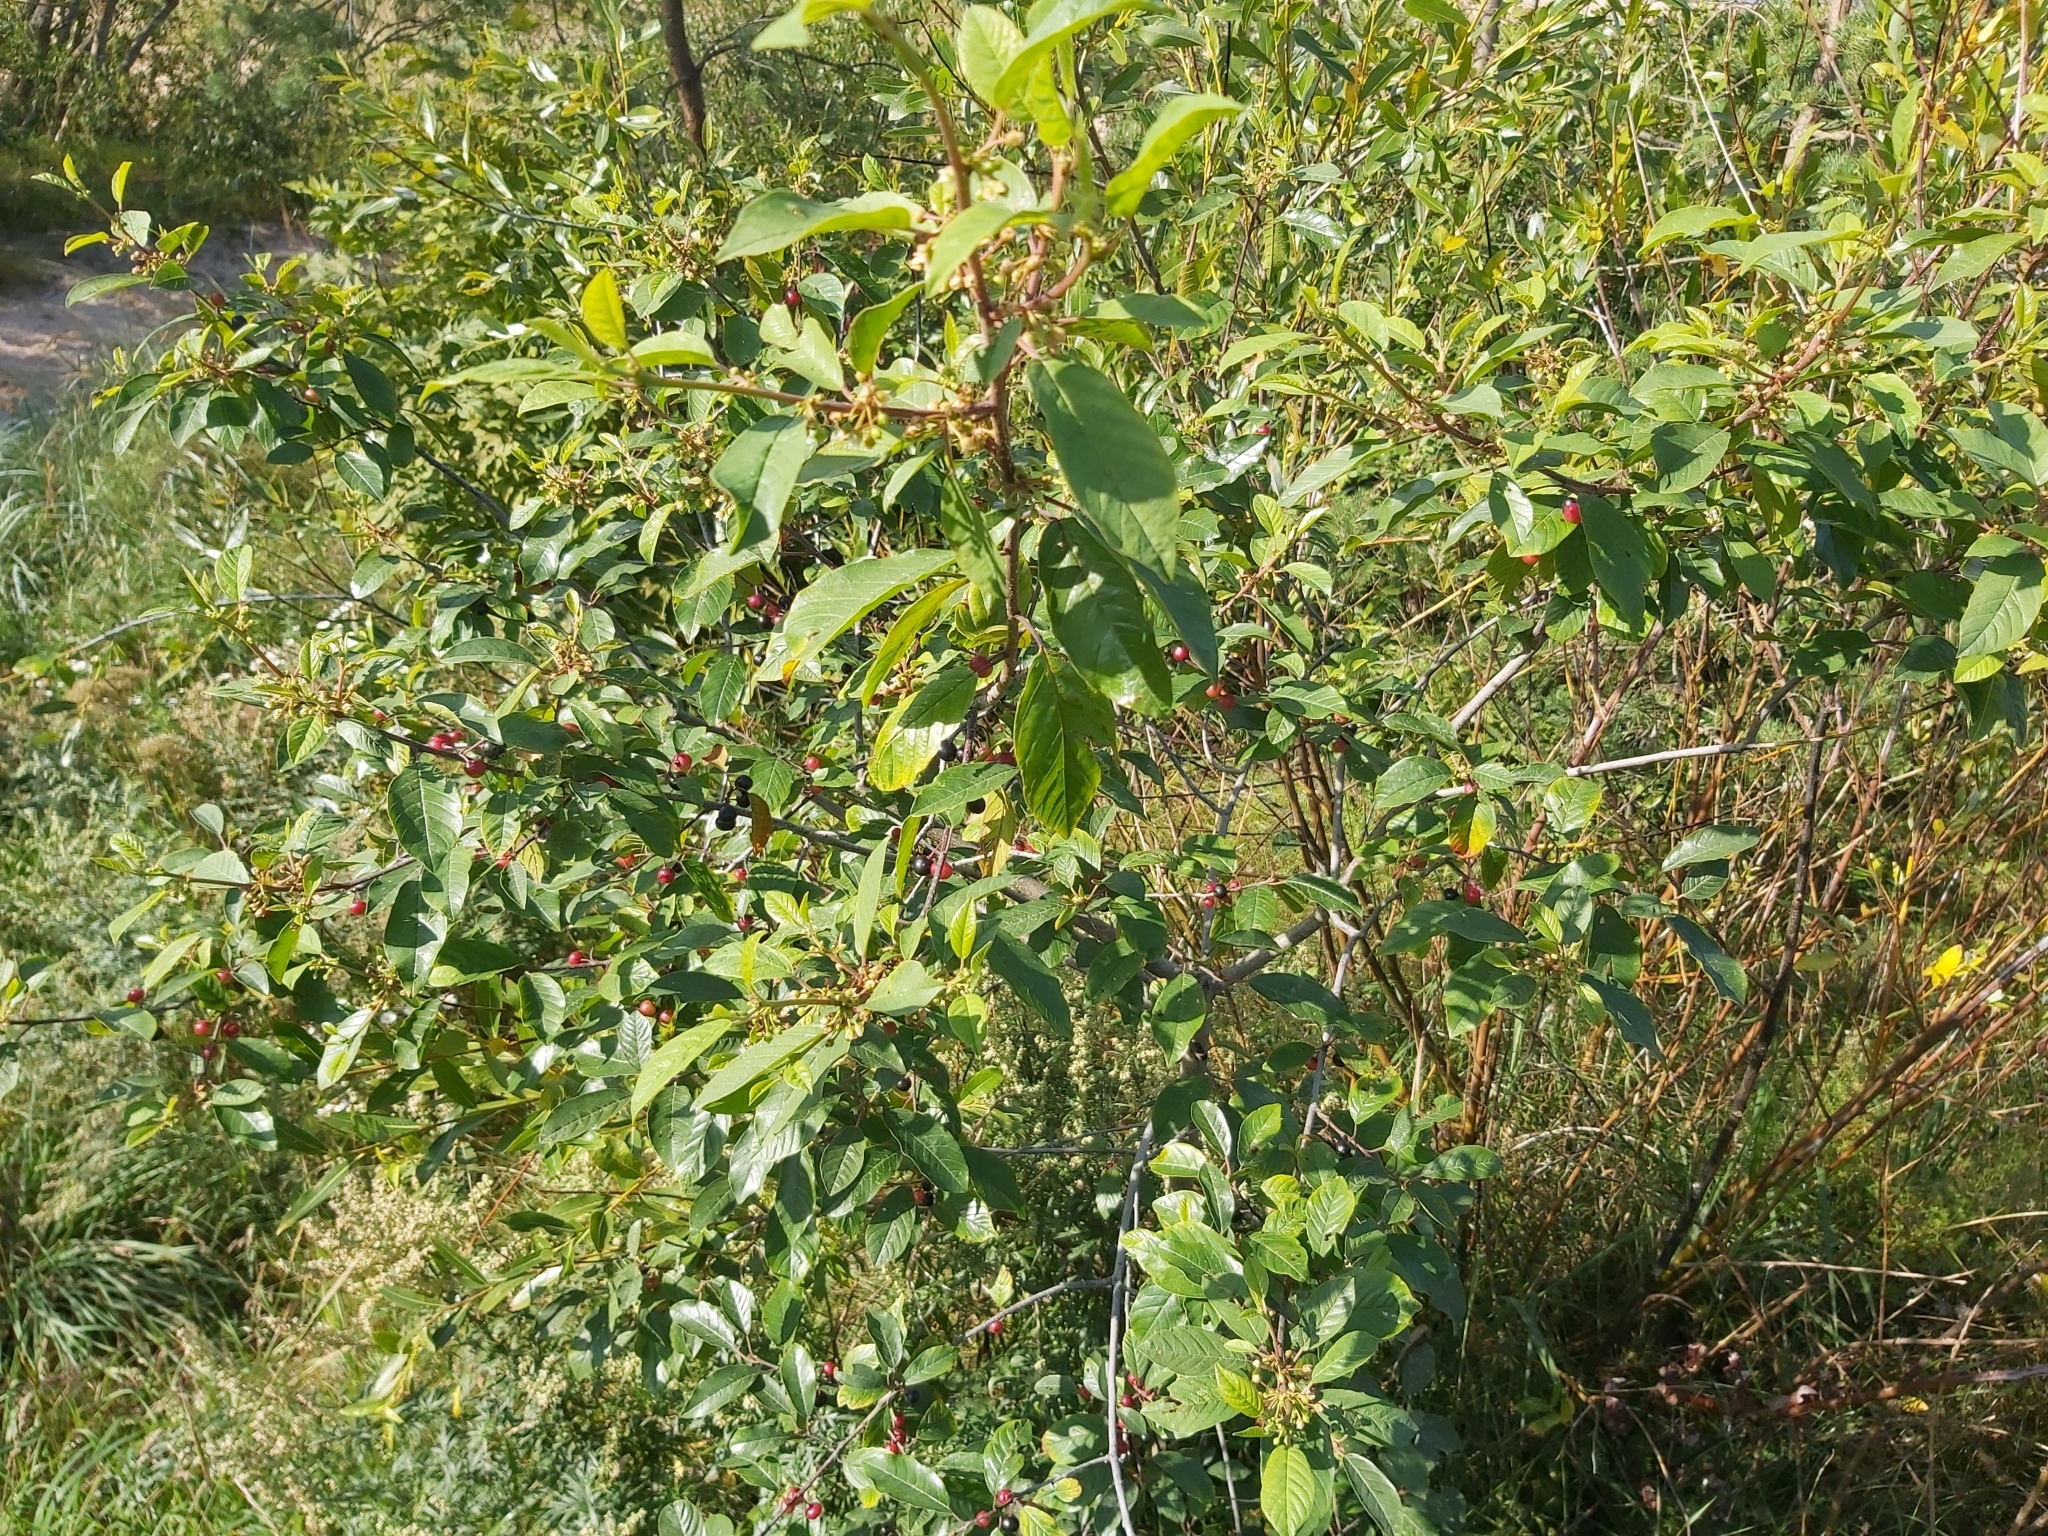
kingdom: Plantae
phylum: Tracheophyta
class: Magnoliopsida
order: Rosales
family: Rhamnaceae
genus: Frangula
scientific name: Frangula alnus
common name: Alder buckthorn
